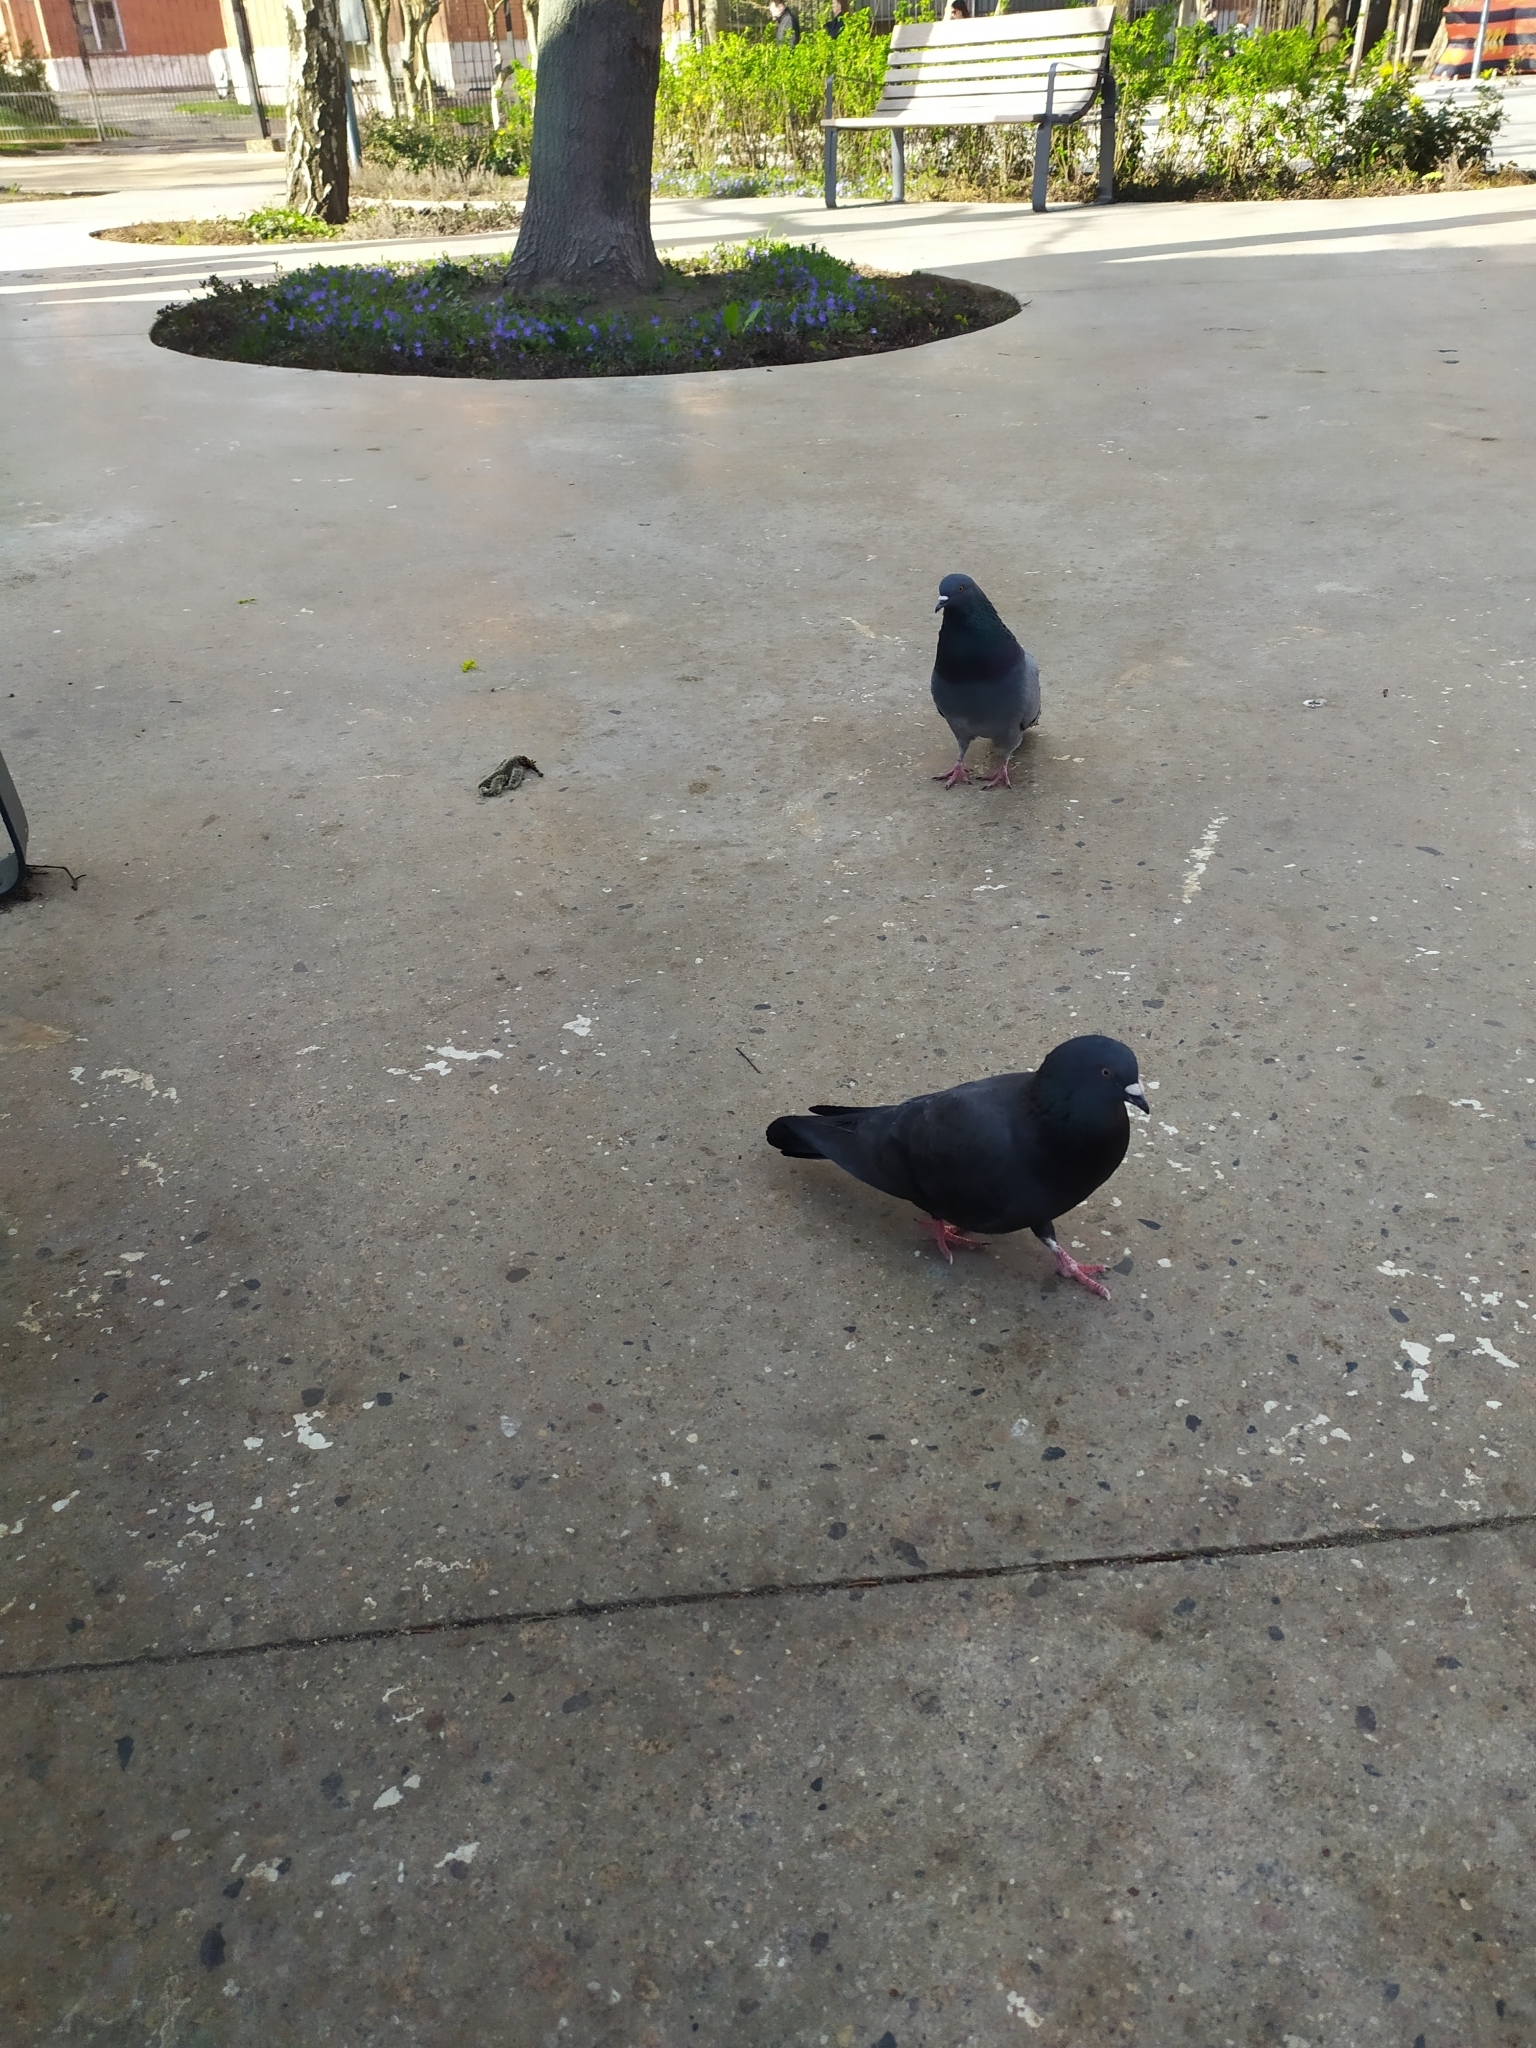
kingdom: Animalia
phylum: Chordata
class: Aves
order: Columbiformes
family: Columbidae
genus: Columba
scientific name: Columba livia
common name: Rock pigeon
